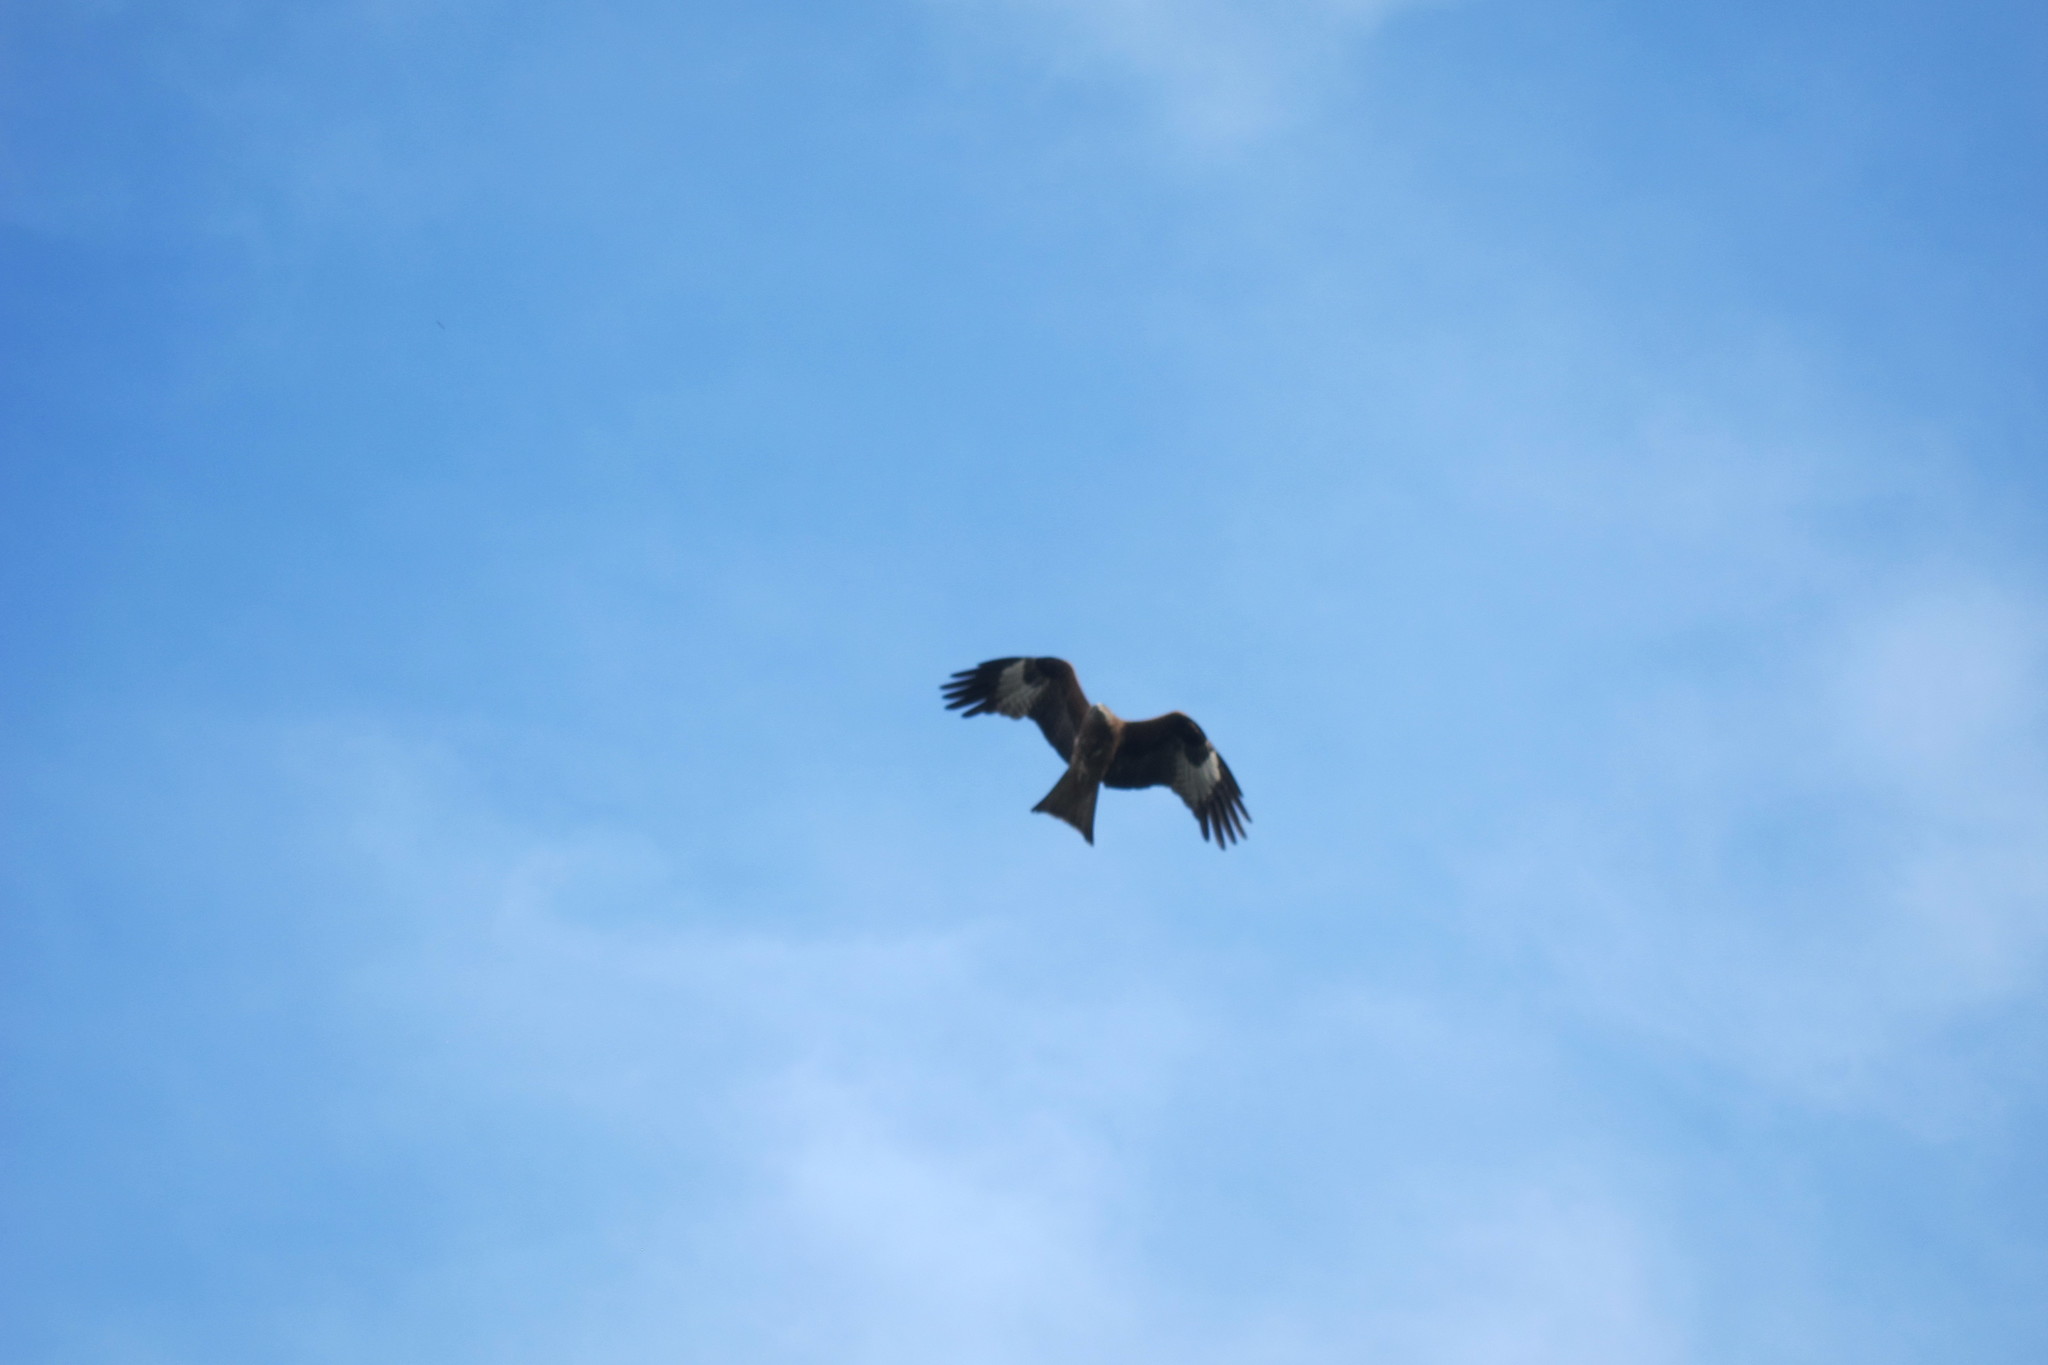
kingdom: Animalia
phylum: Chordata
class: Aves
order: Accipitriformes
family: Accipitridae
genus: Milvus
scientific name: Milvus migrans
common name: Black kite
